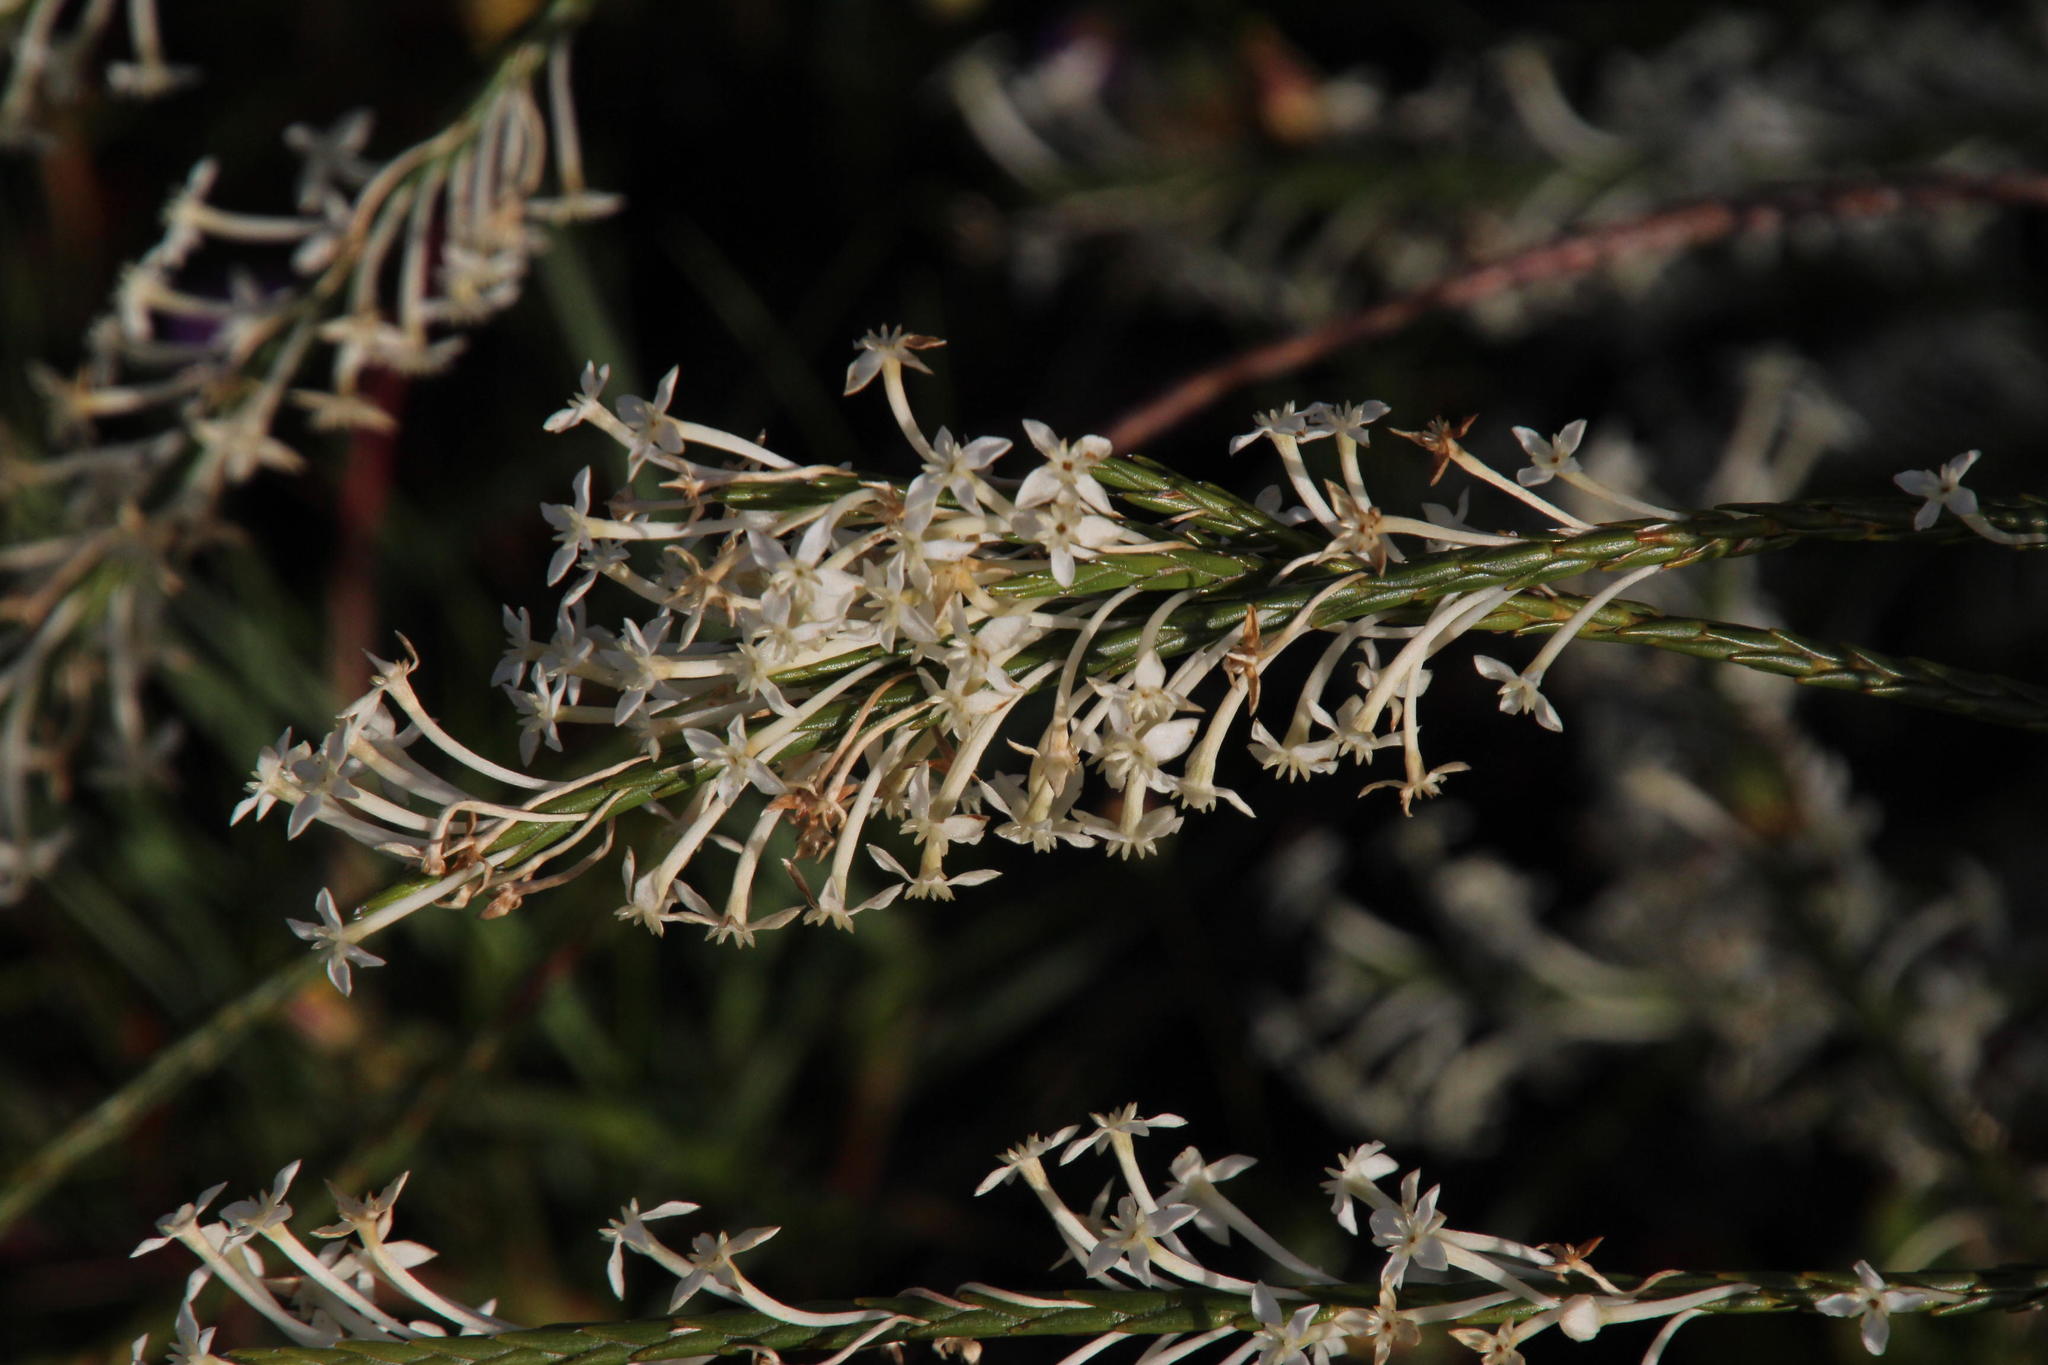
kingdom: Plantae
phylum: Tracheophyta
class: Magnoliopsida
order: Malvales
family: Thymelaeaceae
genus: Struthiola
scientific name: Struthiola dodecandra
